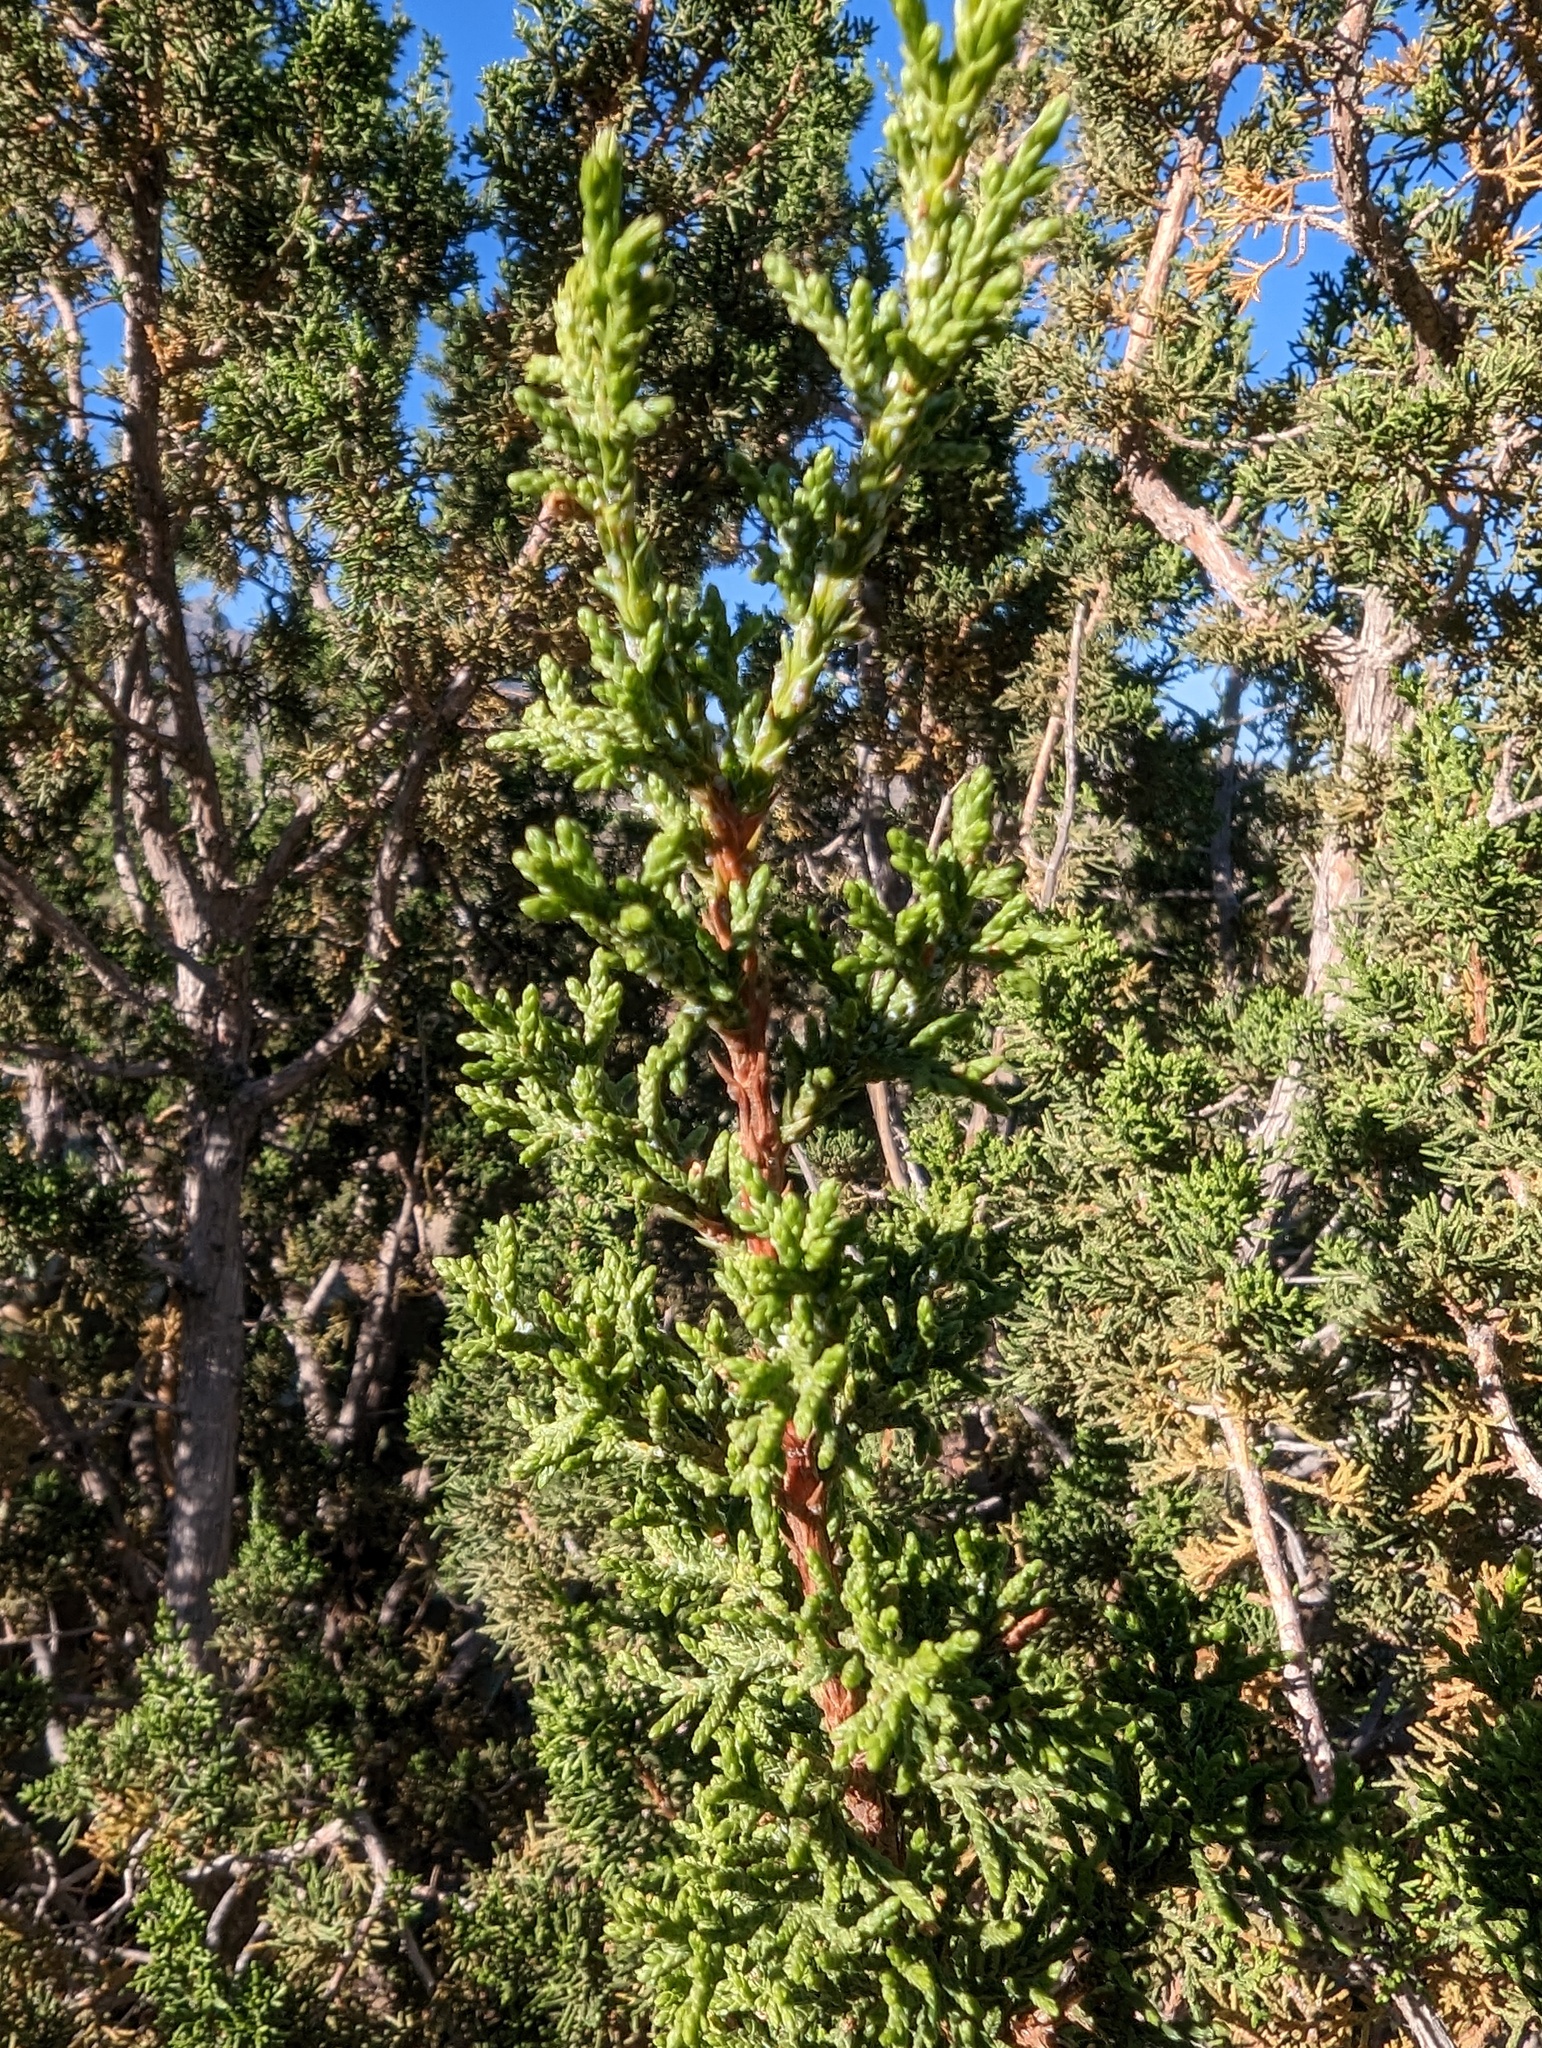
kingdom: Plantae
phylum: Tracheophyta
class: Pinopsida
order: Pinales
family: Cupressaceae
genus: Juniperus
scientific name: Juniperus monosperma
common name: One-seed juniper
